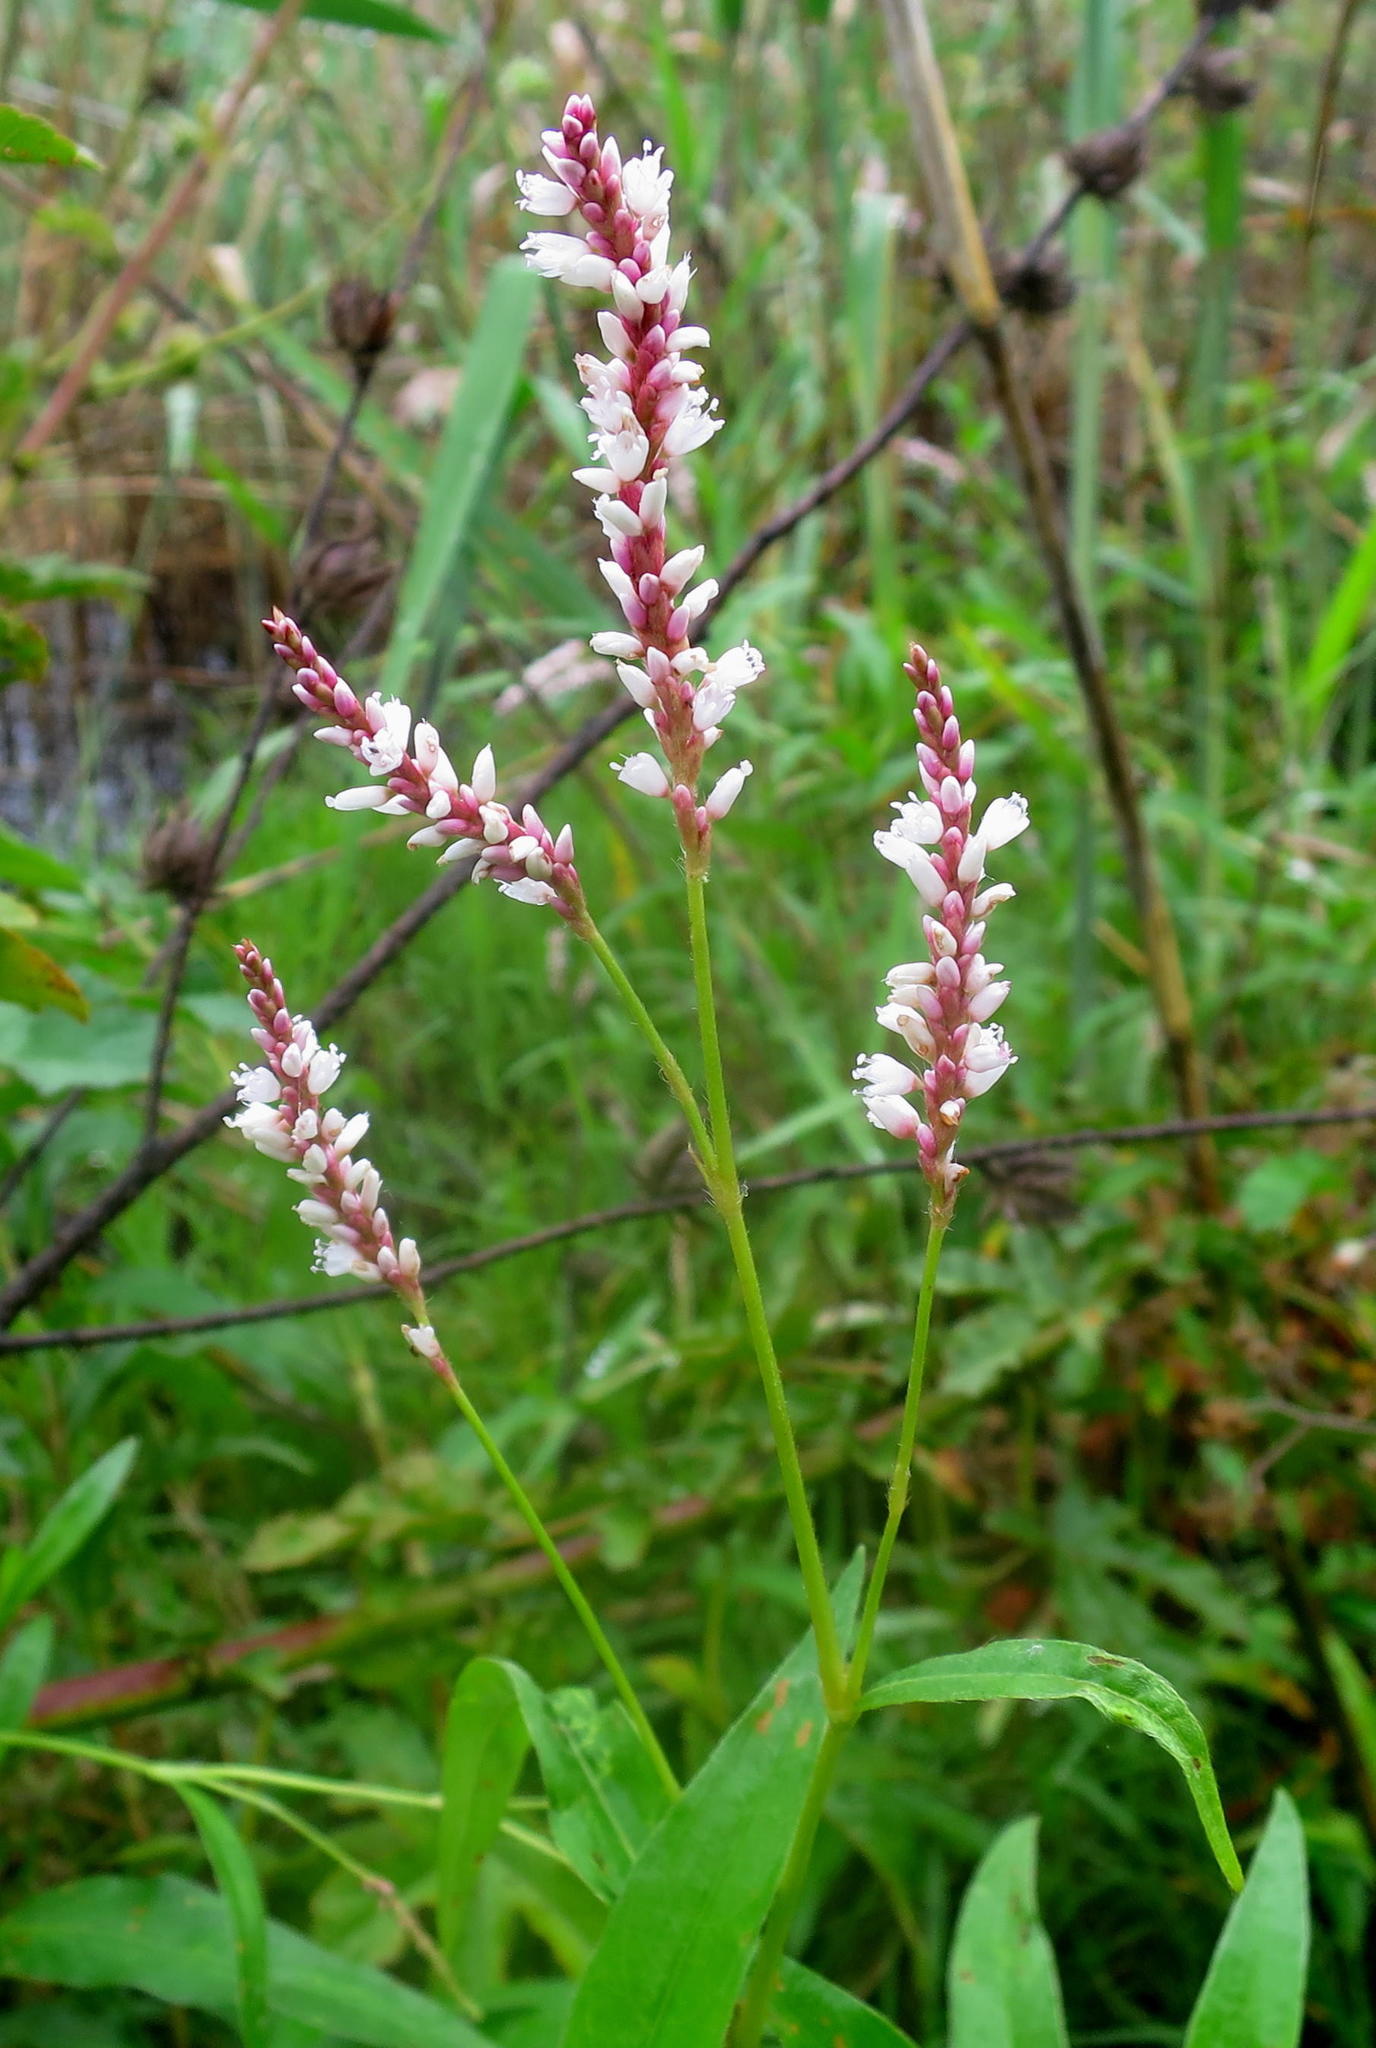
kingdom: Plantae
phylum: Tracheophyta
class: Magnoliopsida
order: Caryophyllales
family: Polygonaceae
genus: Persicaria
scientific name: Persicaria madagascariensis
